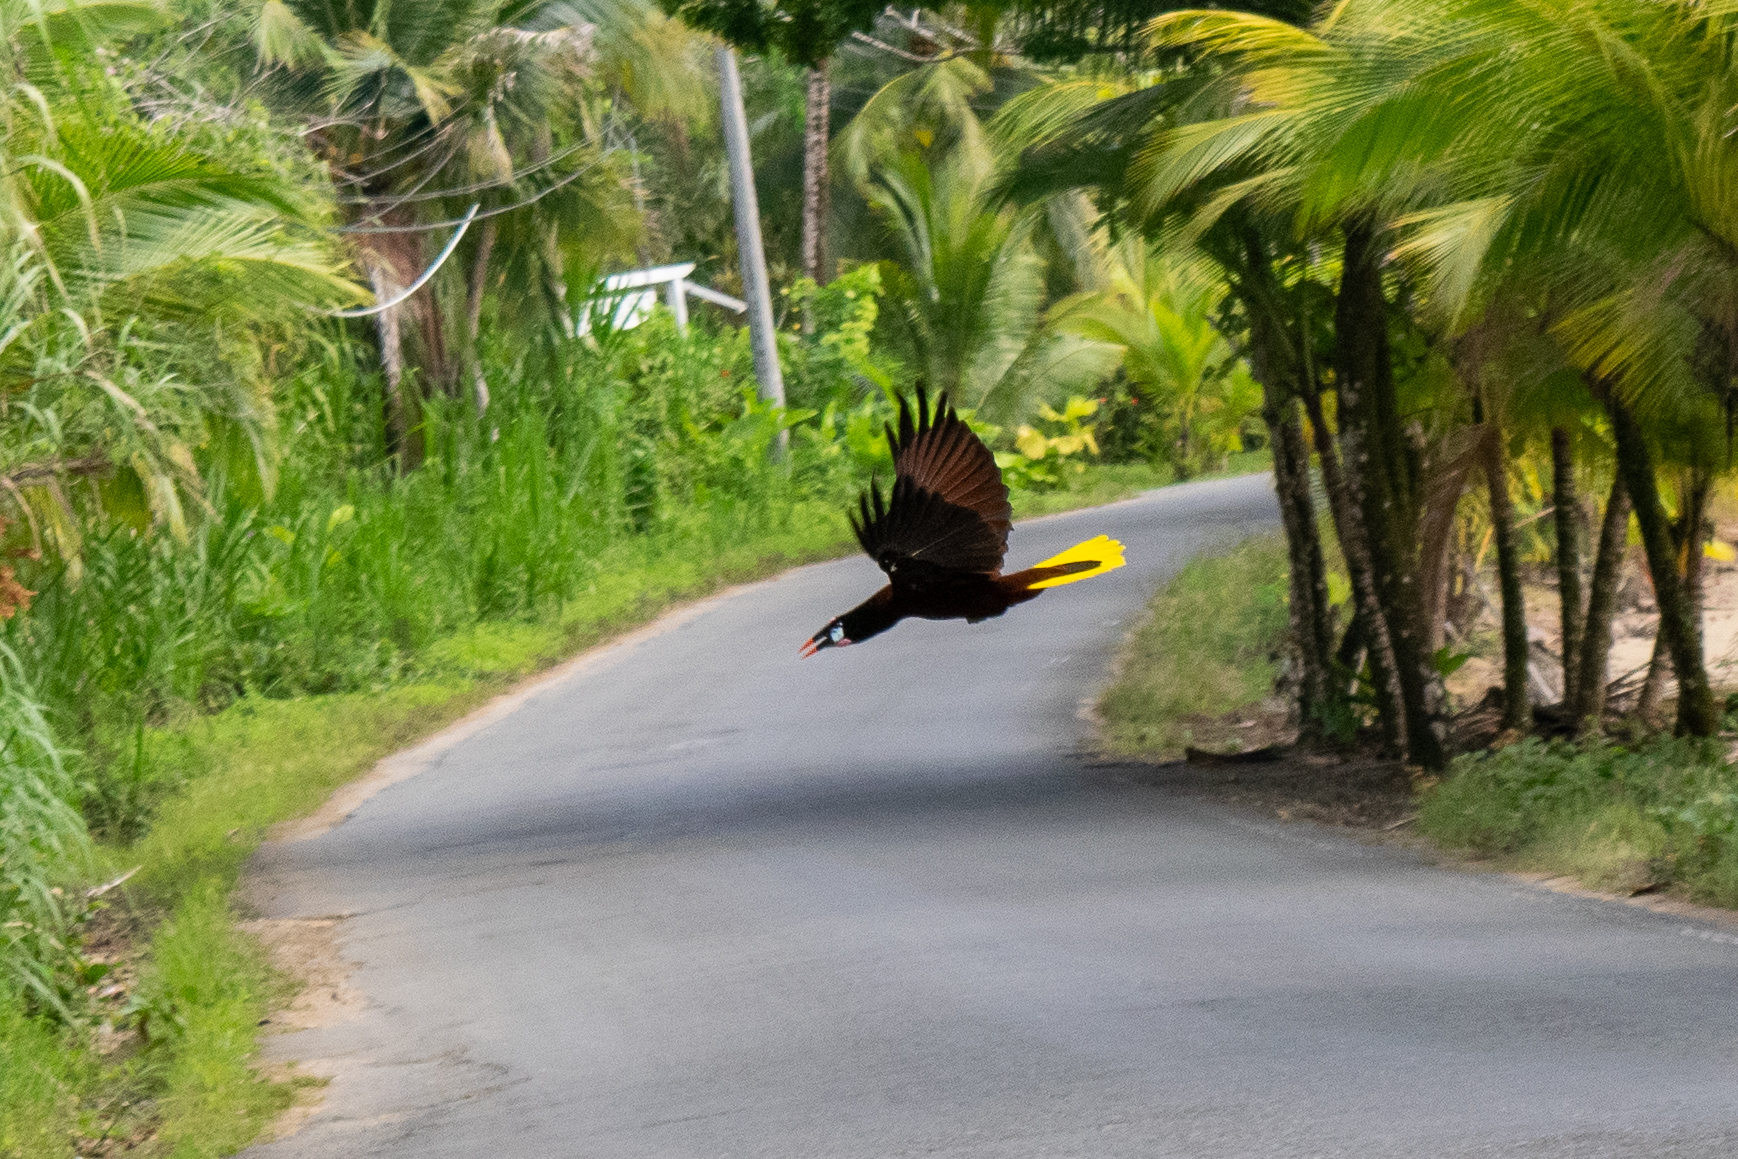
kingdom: Animalia
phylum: Chordata
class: Aves
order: Passeriformes
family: Icteridae
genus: Psarocolius
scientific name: Psarocolius montezuma
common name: Montezuma oropendola
